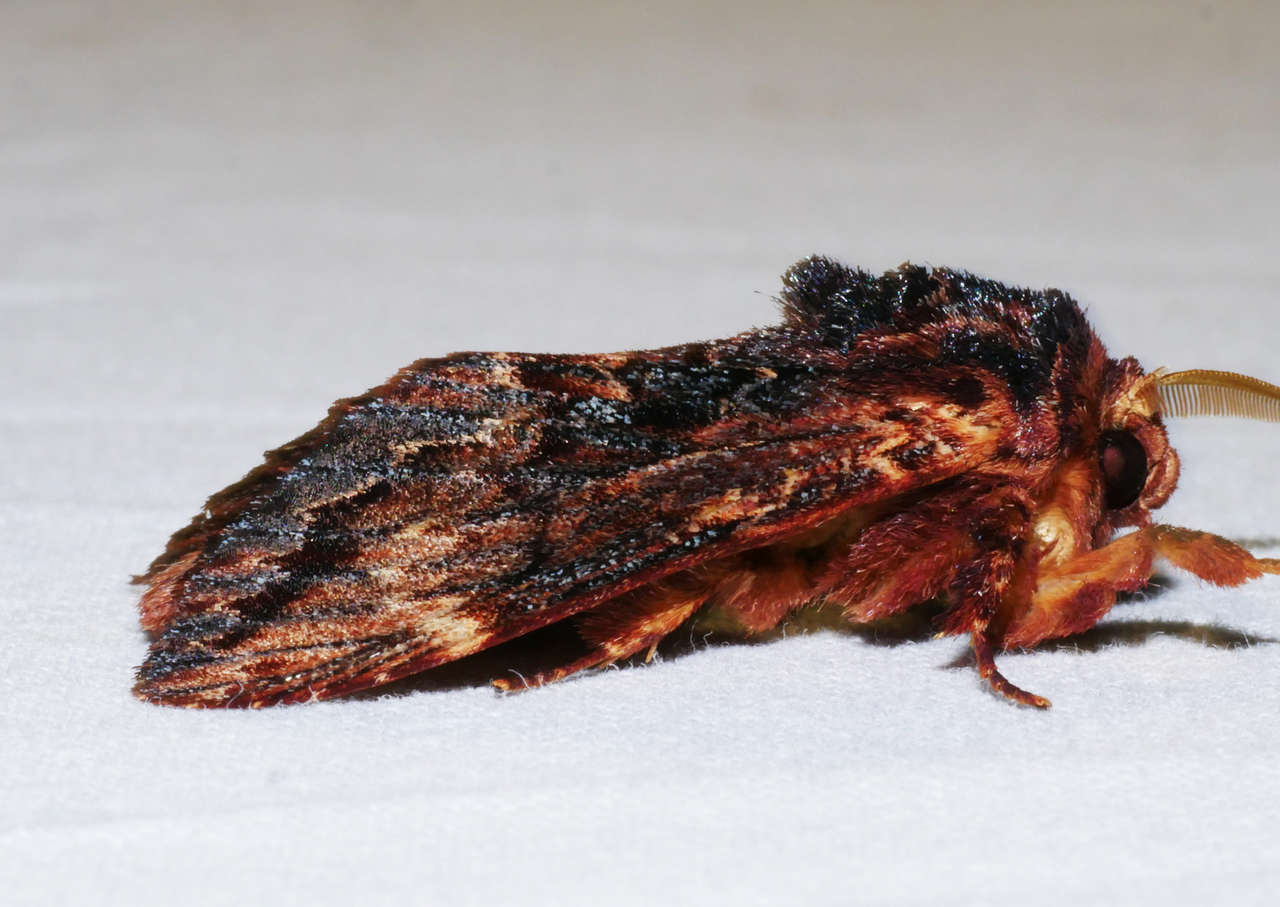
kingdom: Animalia
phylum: Arthropoda
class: Insecta
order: Lepidoptera
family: Notodontidae
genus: Sorama
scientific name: Sorama bicolor
